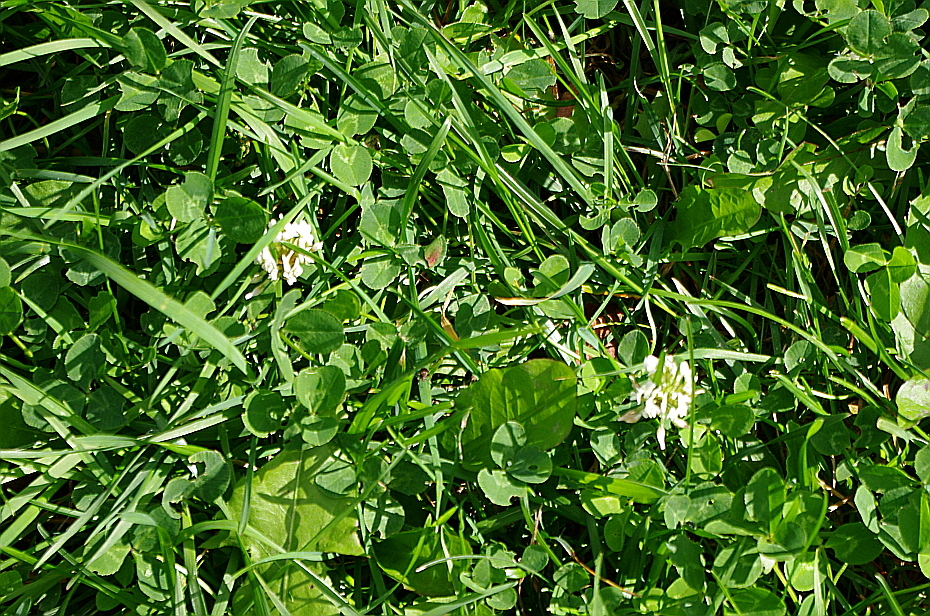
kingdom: Plantae
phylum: Tracheophyta
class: Magnoliopsida
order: Fabales
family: Fabaceae
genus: Trifolium
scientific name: Trifolium repens
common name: White clover
